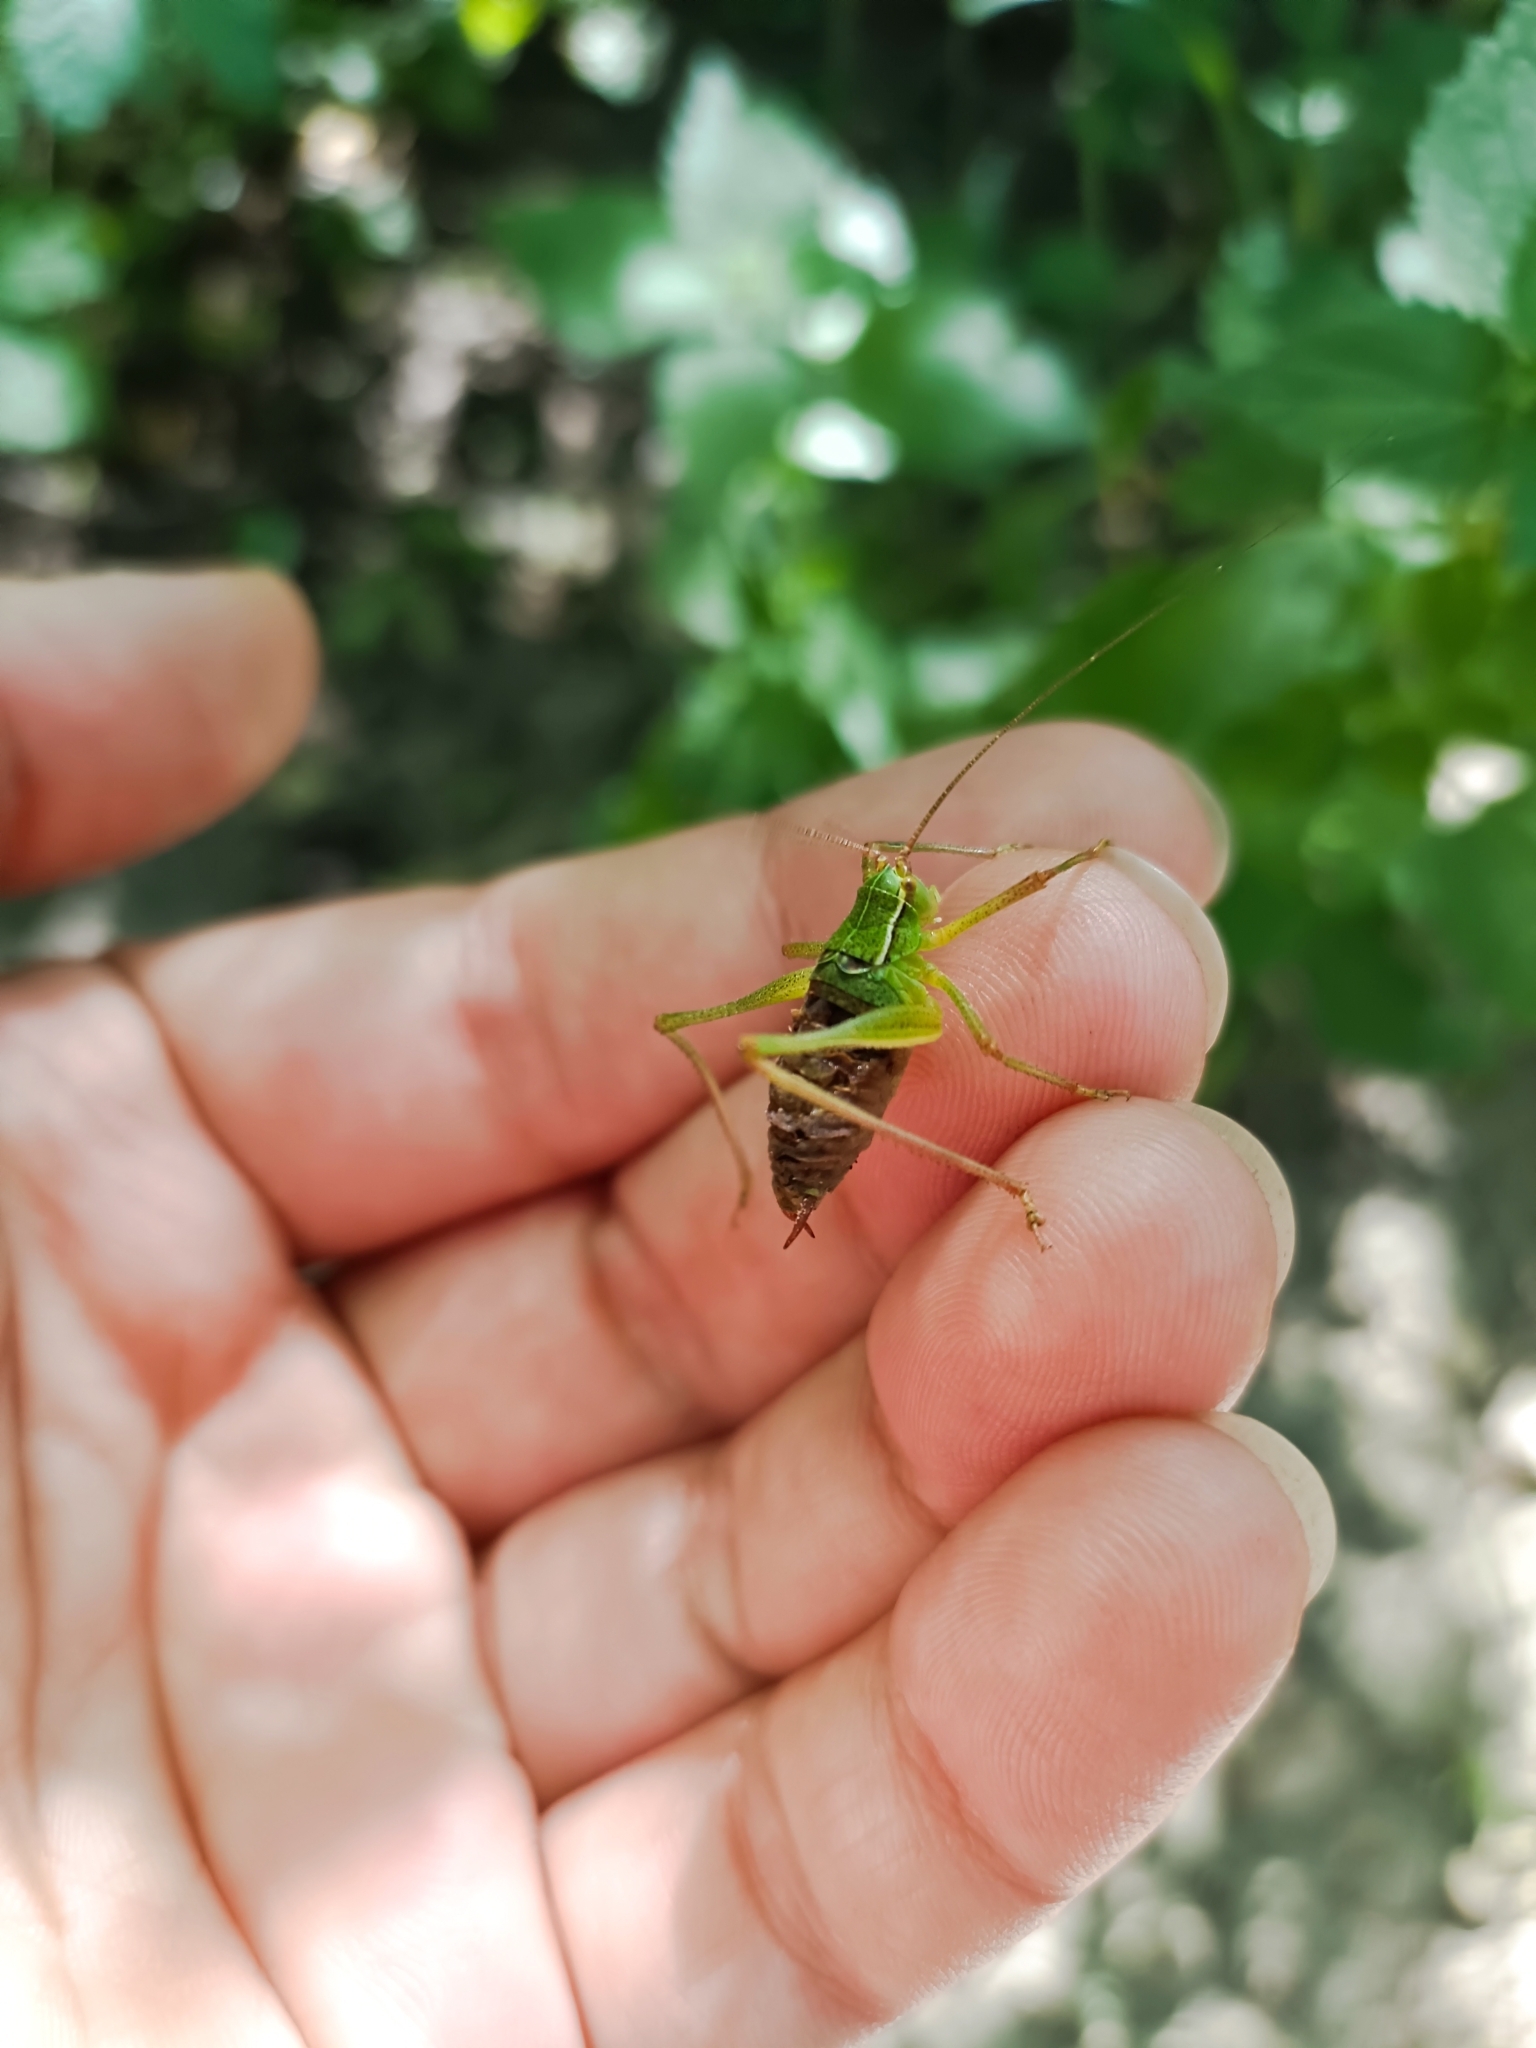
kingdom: Animalia
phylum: Arthropoda
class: Insecta
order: Orthoptera
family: Tettigoniidae
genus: Barbitistes
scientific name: Barbitistes serricauda
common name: Saw-tailed bush-cricket
